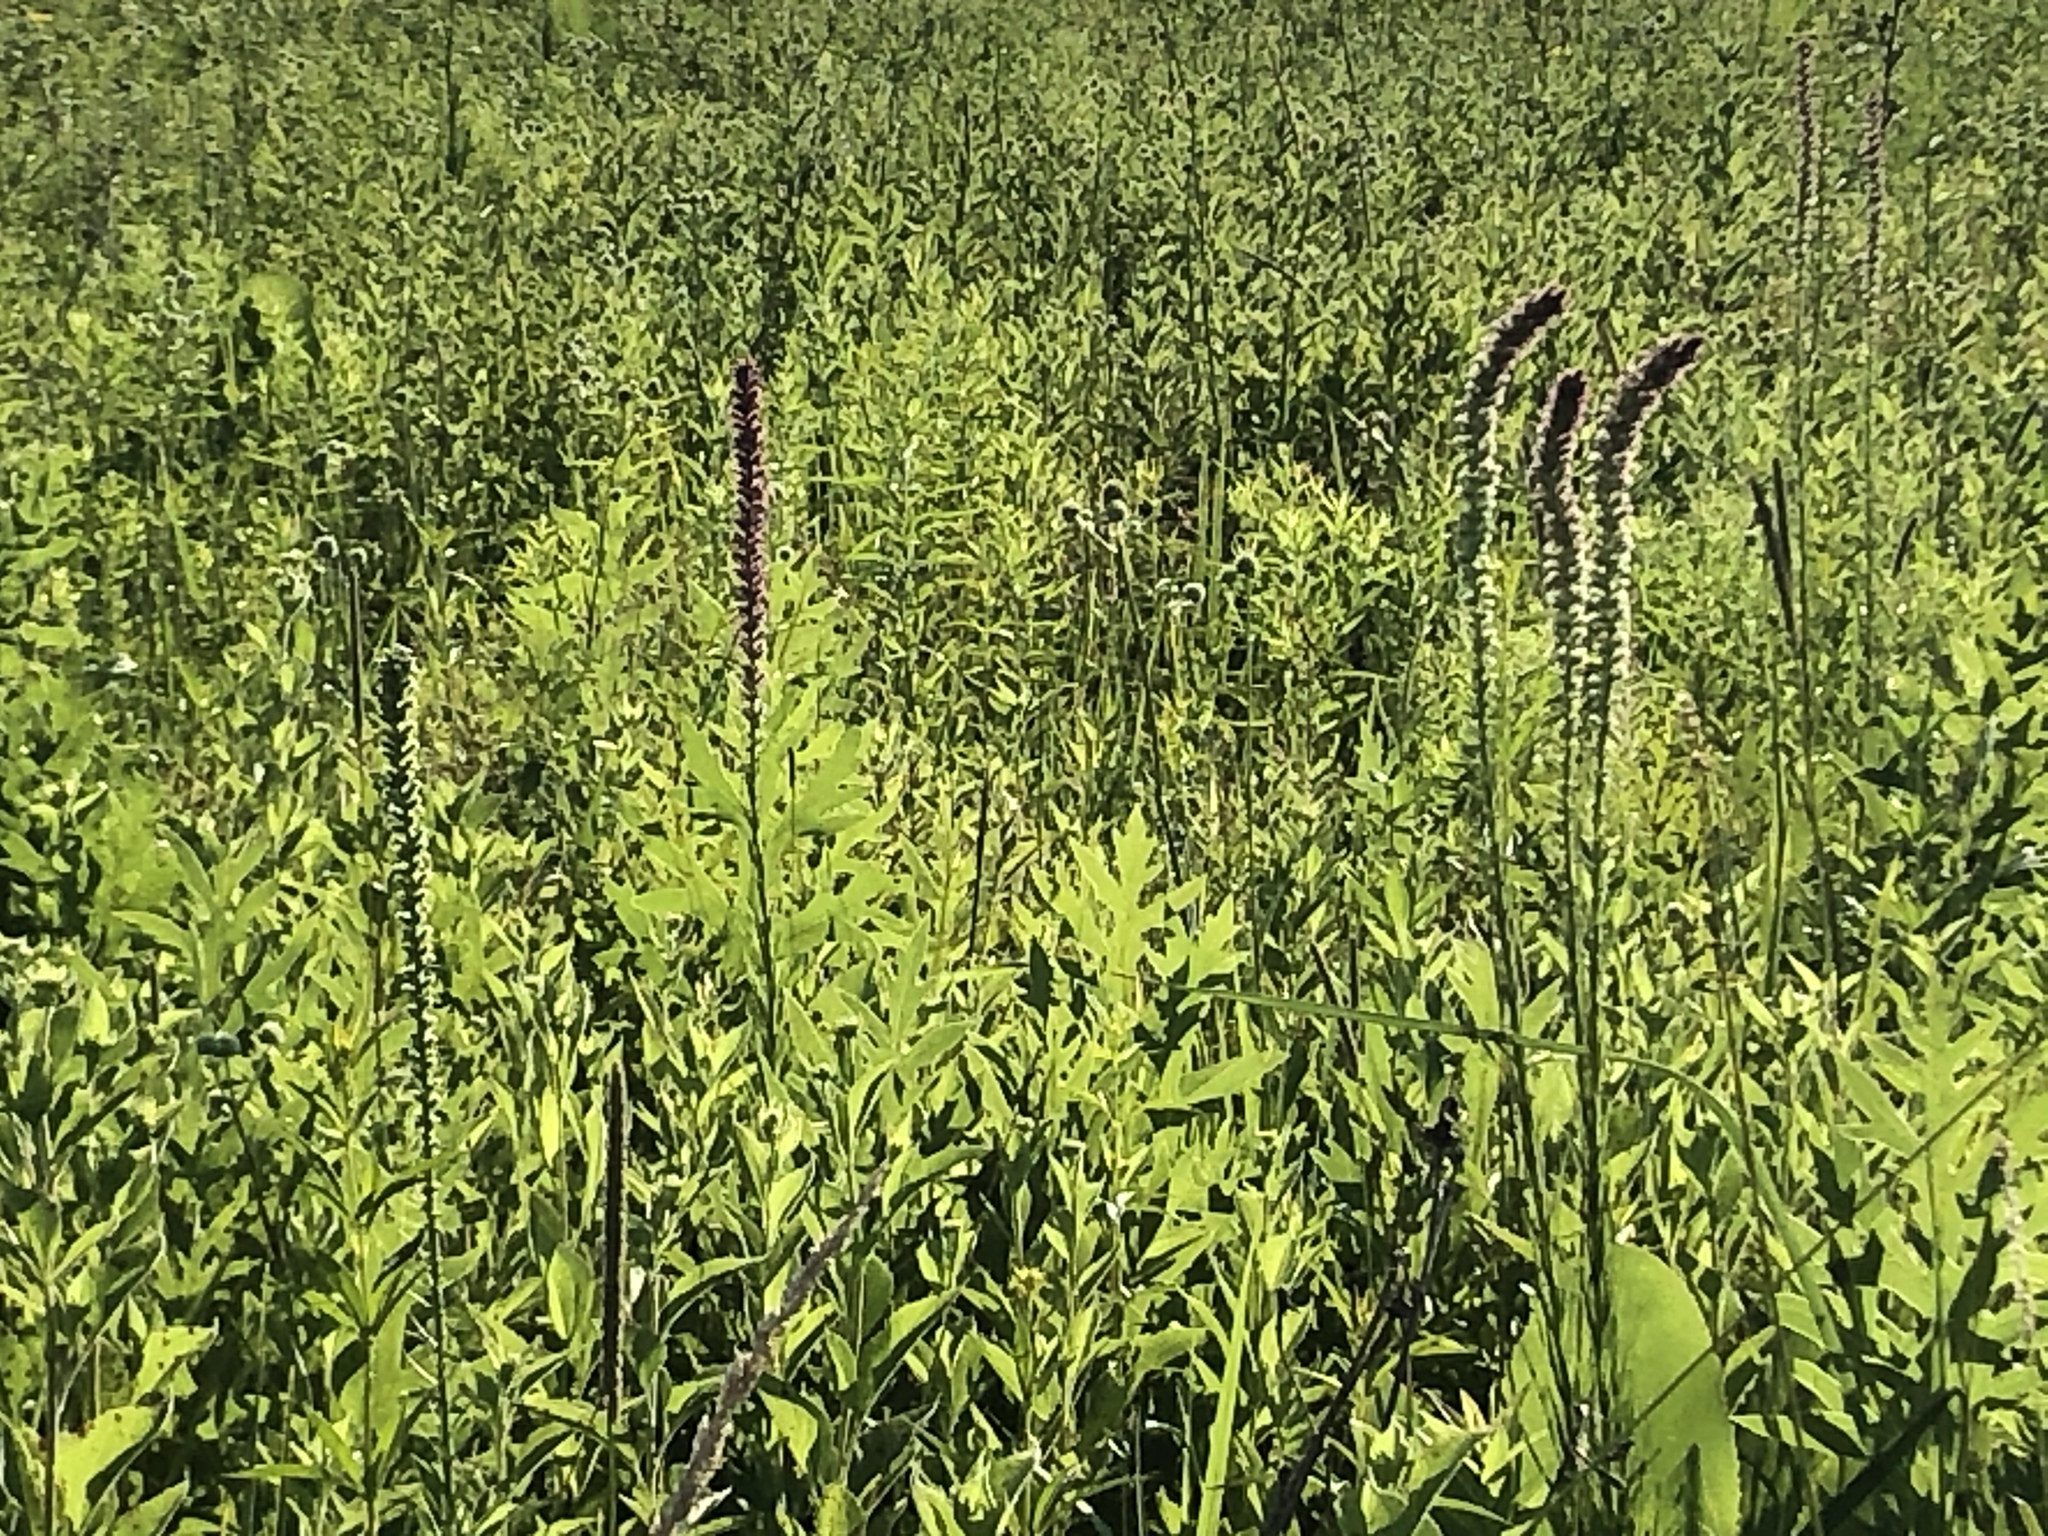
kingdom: Plantae
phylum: Tracheophyta
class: Magnoliopsida
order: Asterales
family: Asteraceae
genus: Liatris
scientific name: Liatris pycnostachya
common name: Cattail gayfeather
